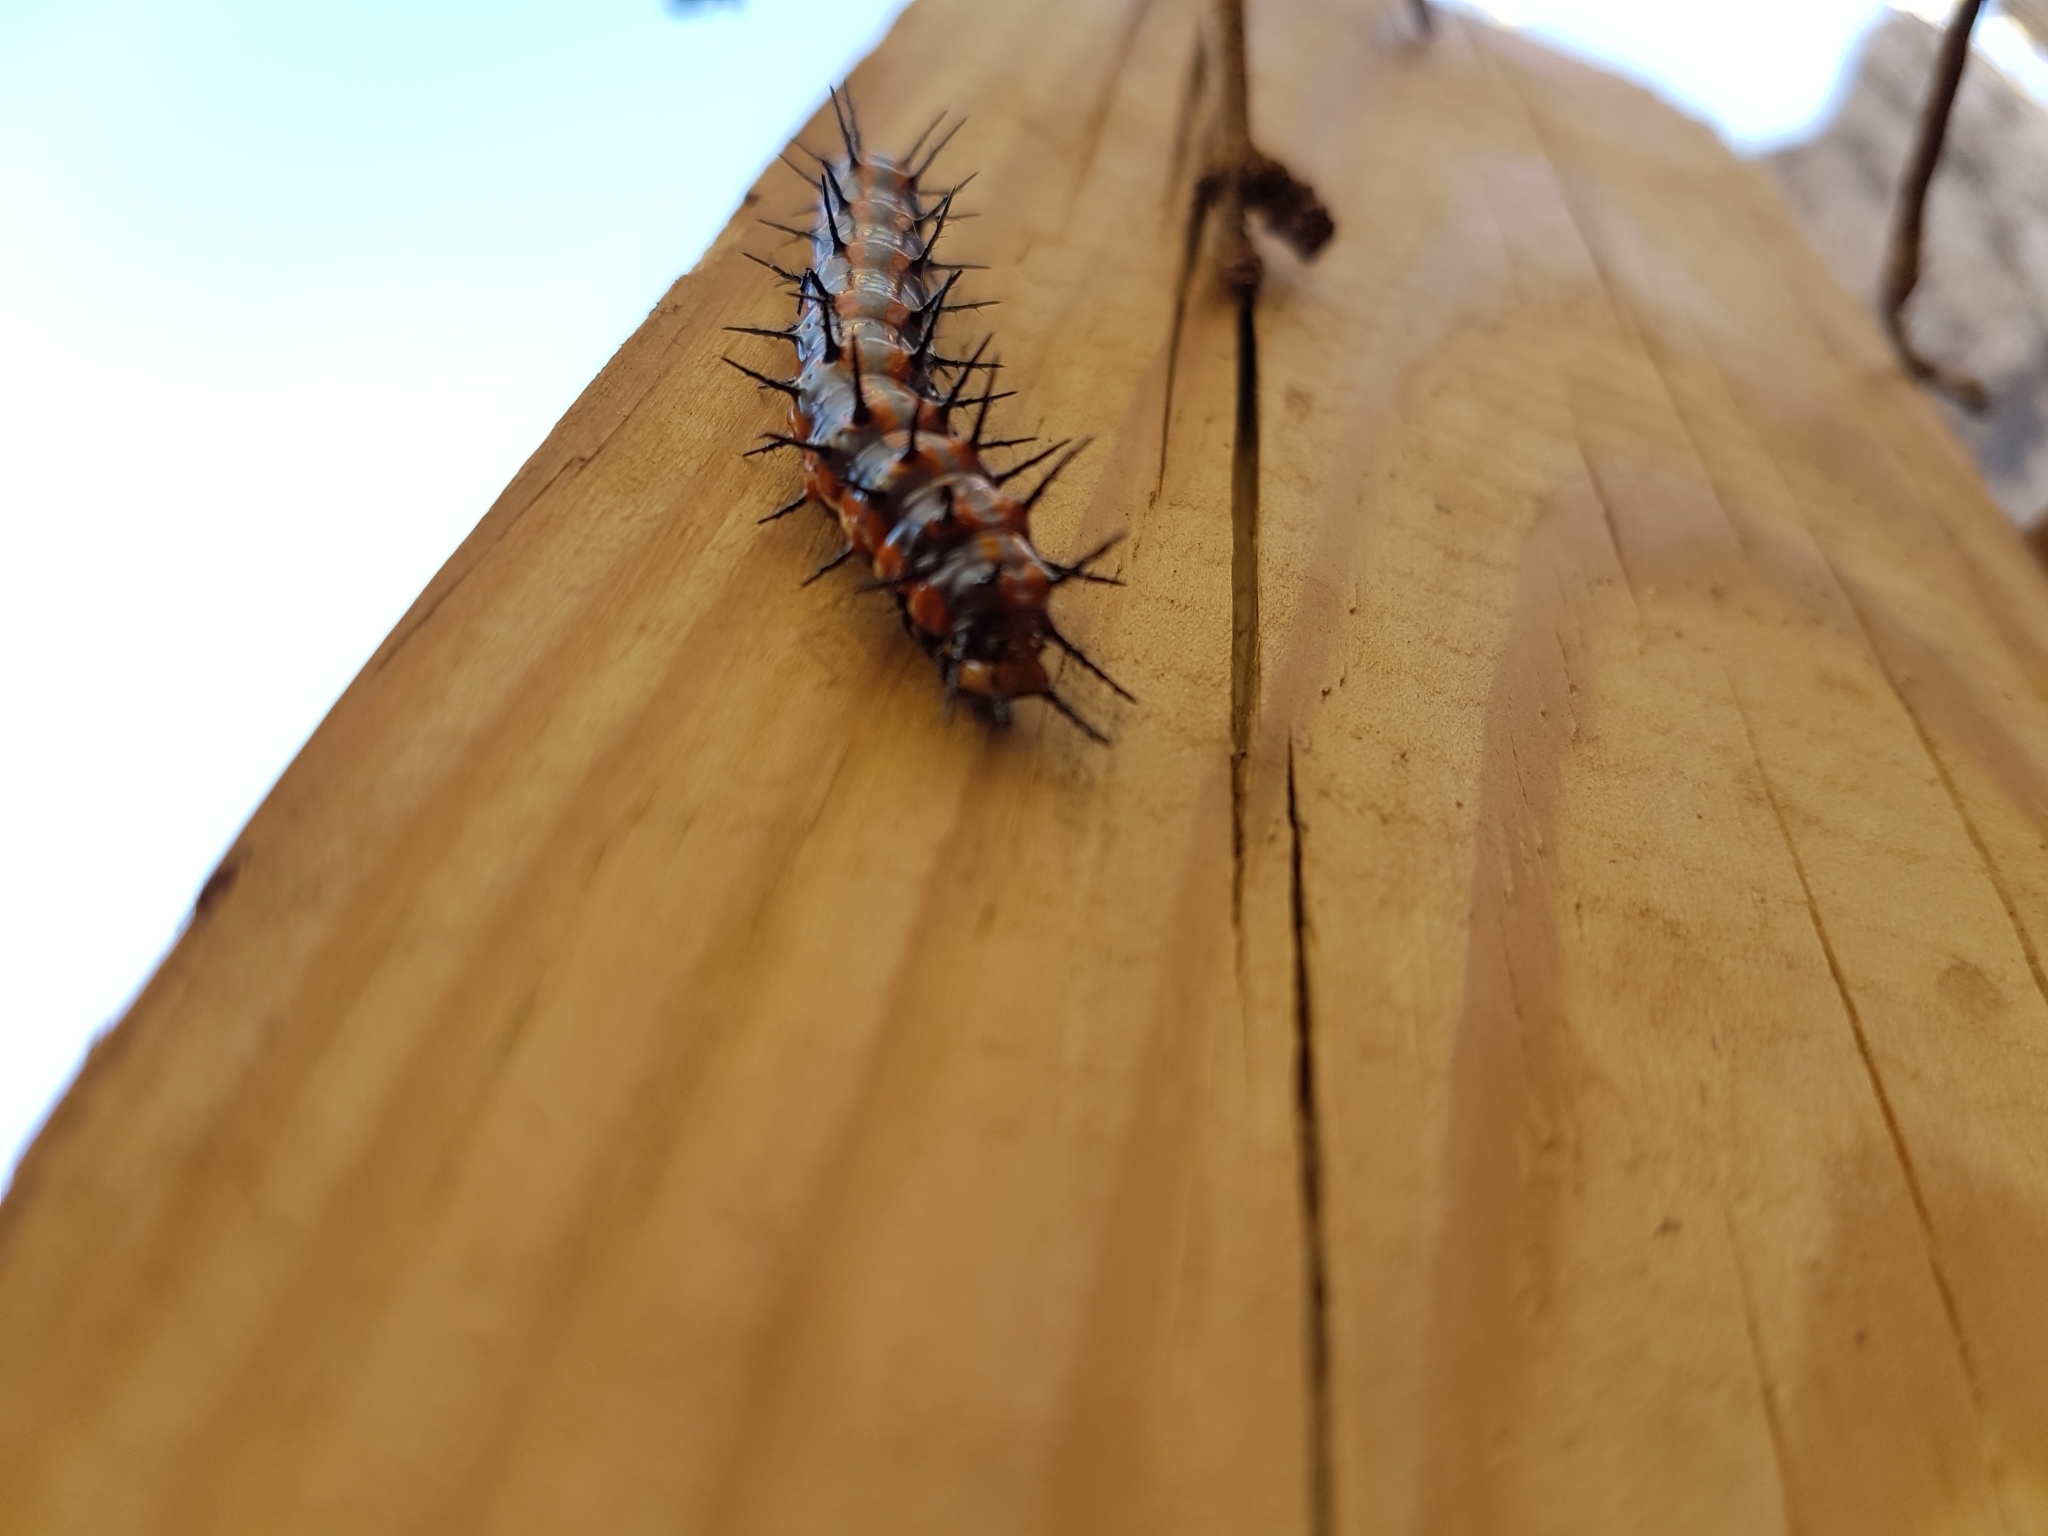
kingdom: Animalia
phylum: Arthropoda
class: Insecta
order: Lepidoptera
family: Nymphalidae
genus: Dione
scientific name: Dione vanillae
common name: Gulf fritillary
